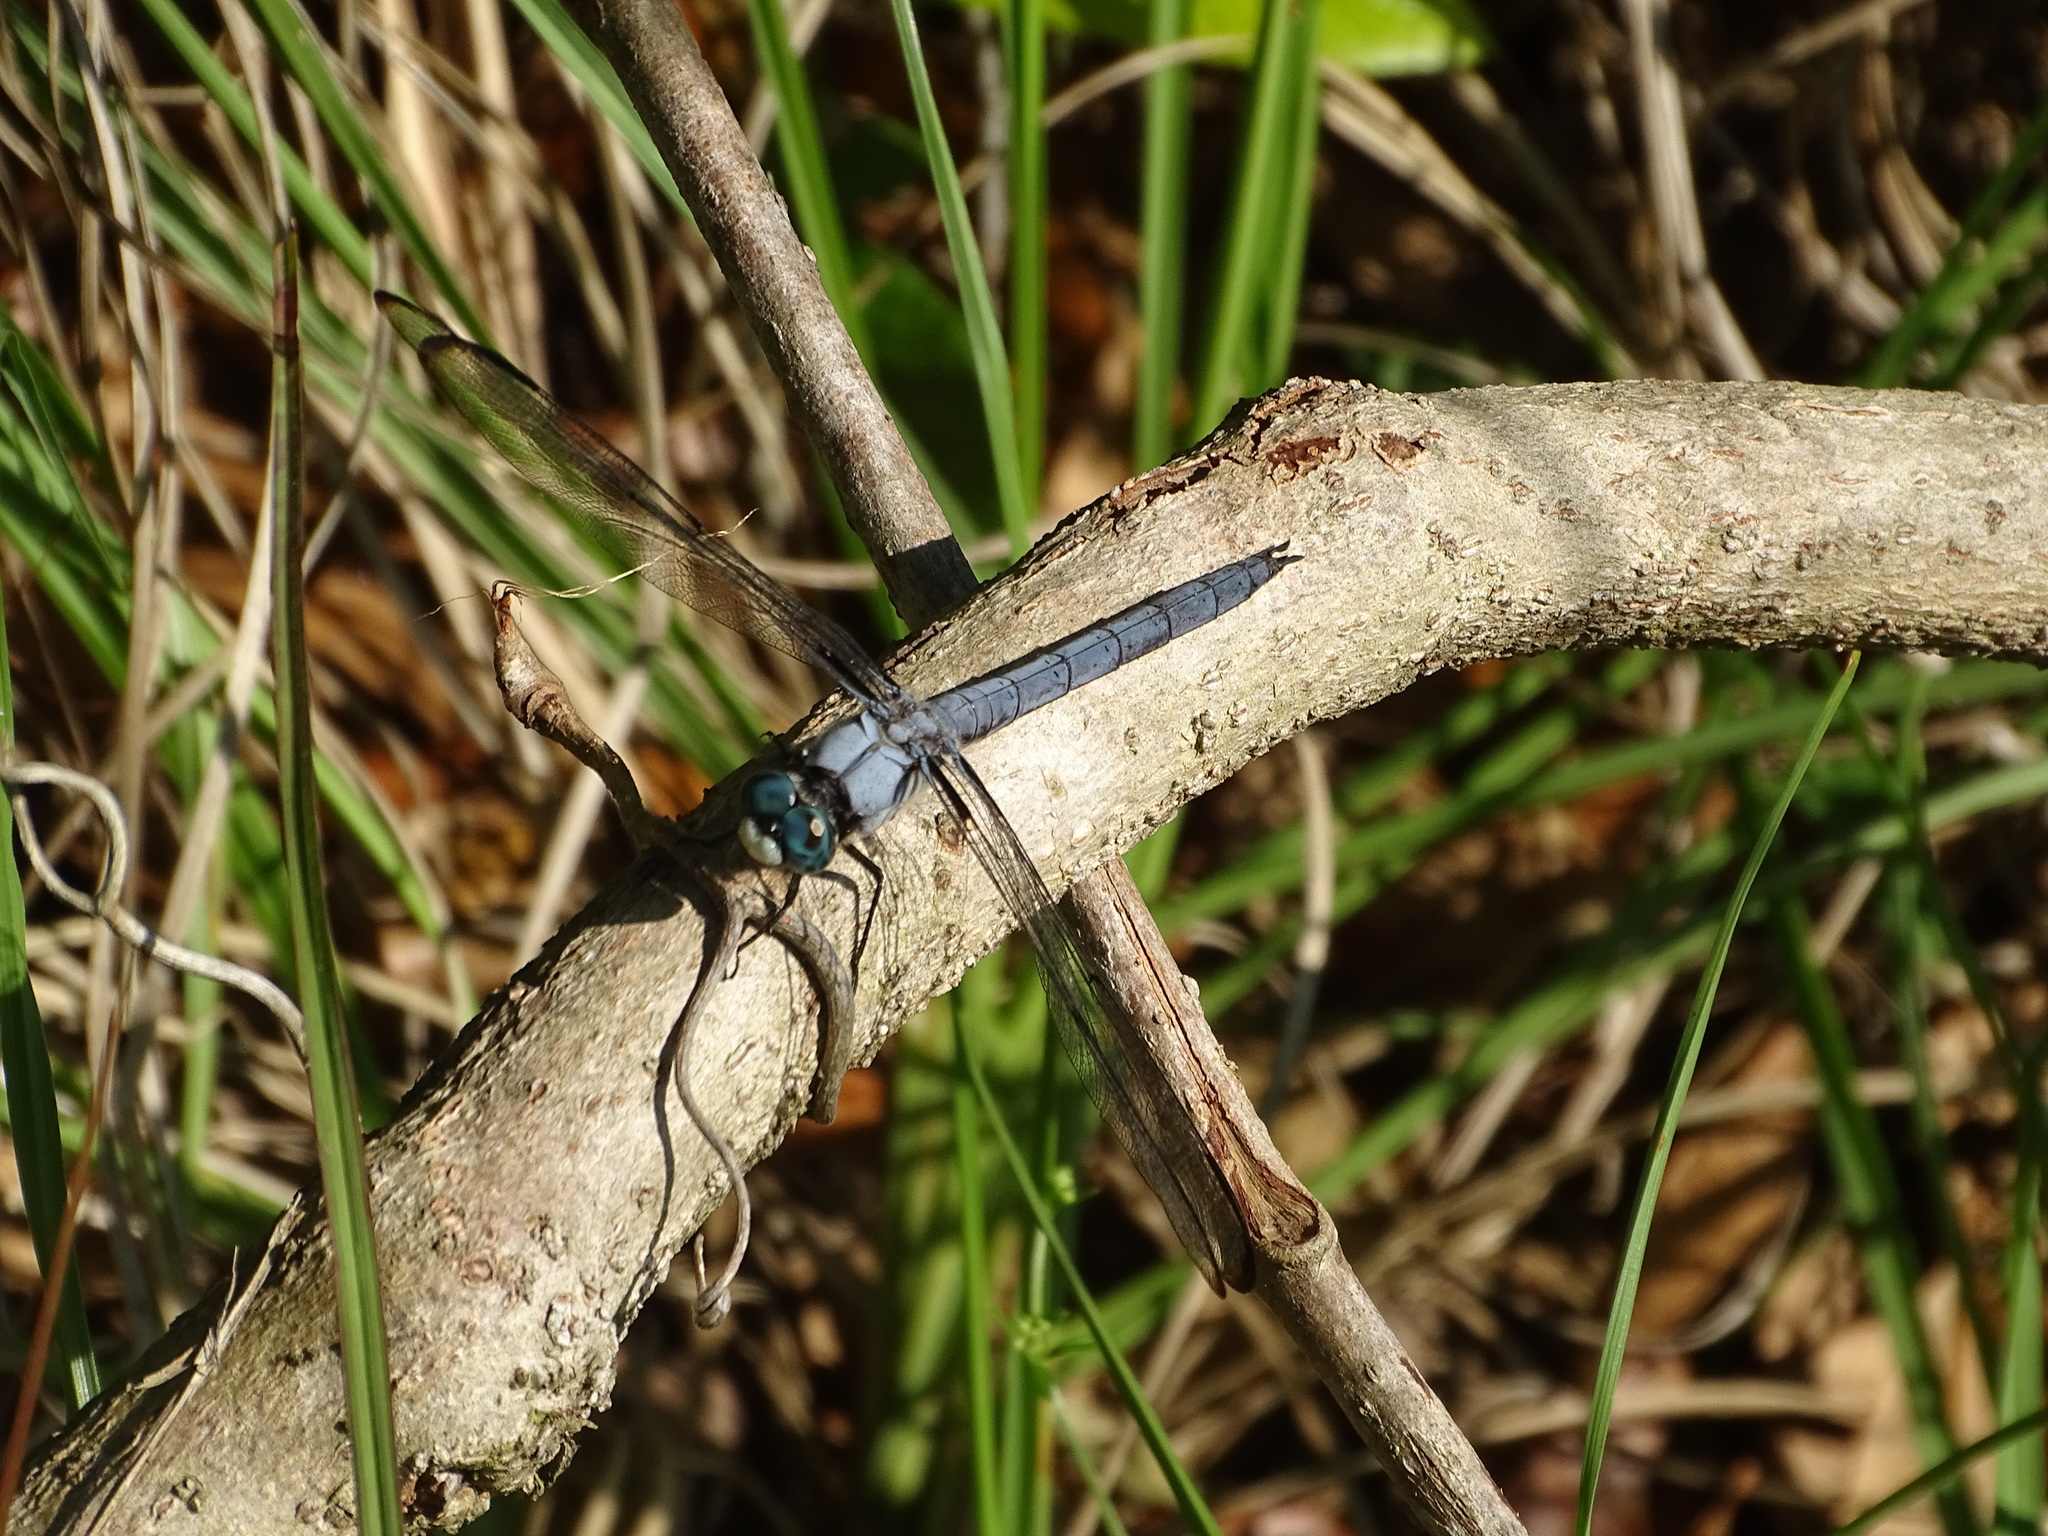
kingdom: Animalia
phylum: Arthropoda
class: Insecta
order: Odonata
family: Libellulidae
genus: Libellula
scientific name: Libellula vibrans
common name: Great blue skimmer
